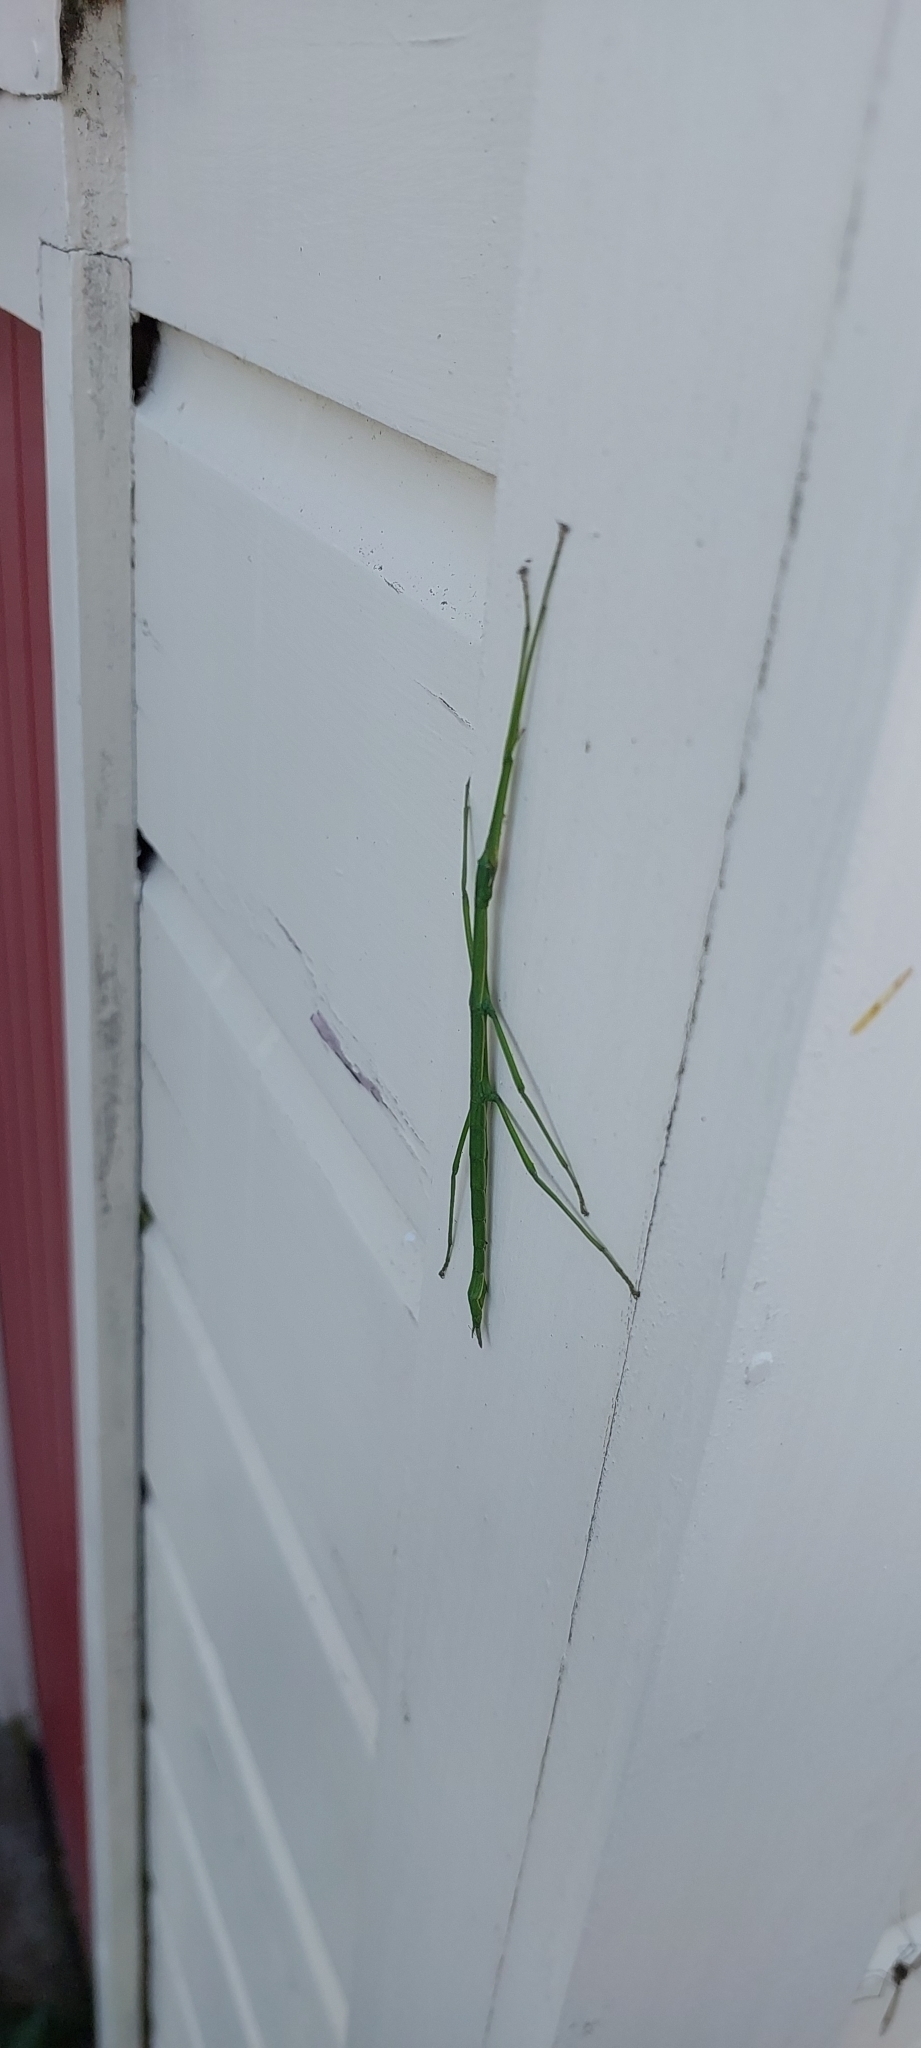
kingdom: Animalia
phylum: Arthropoda
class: Insecta
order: Phasmida
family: Phasmatidae
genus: Clitarchus
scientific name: Clitarchus hookeri
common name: Smooth stick insect
